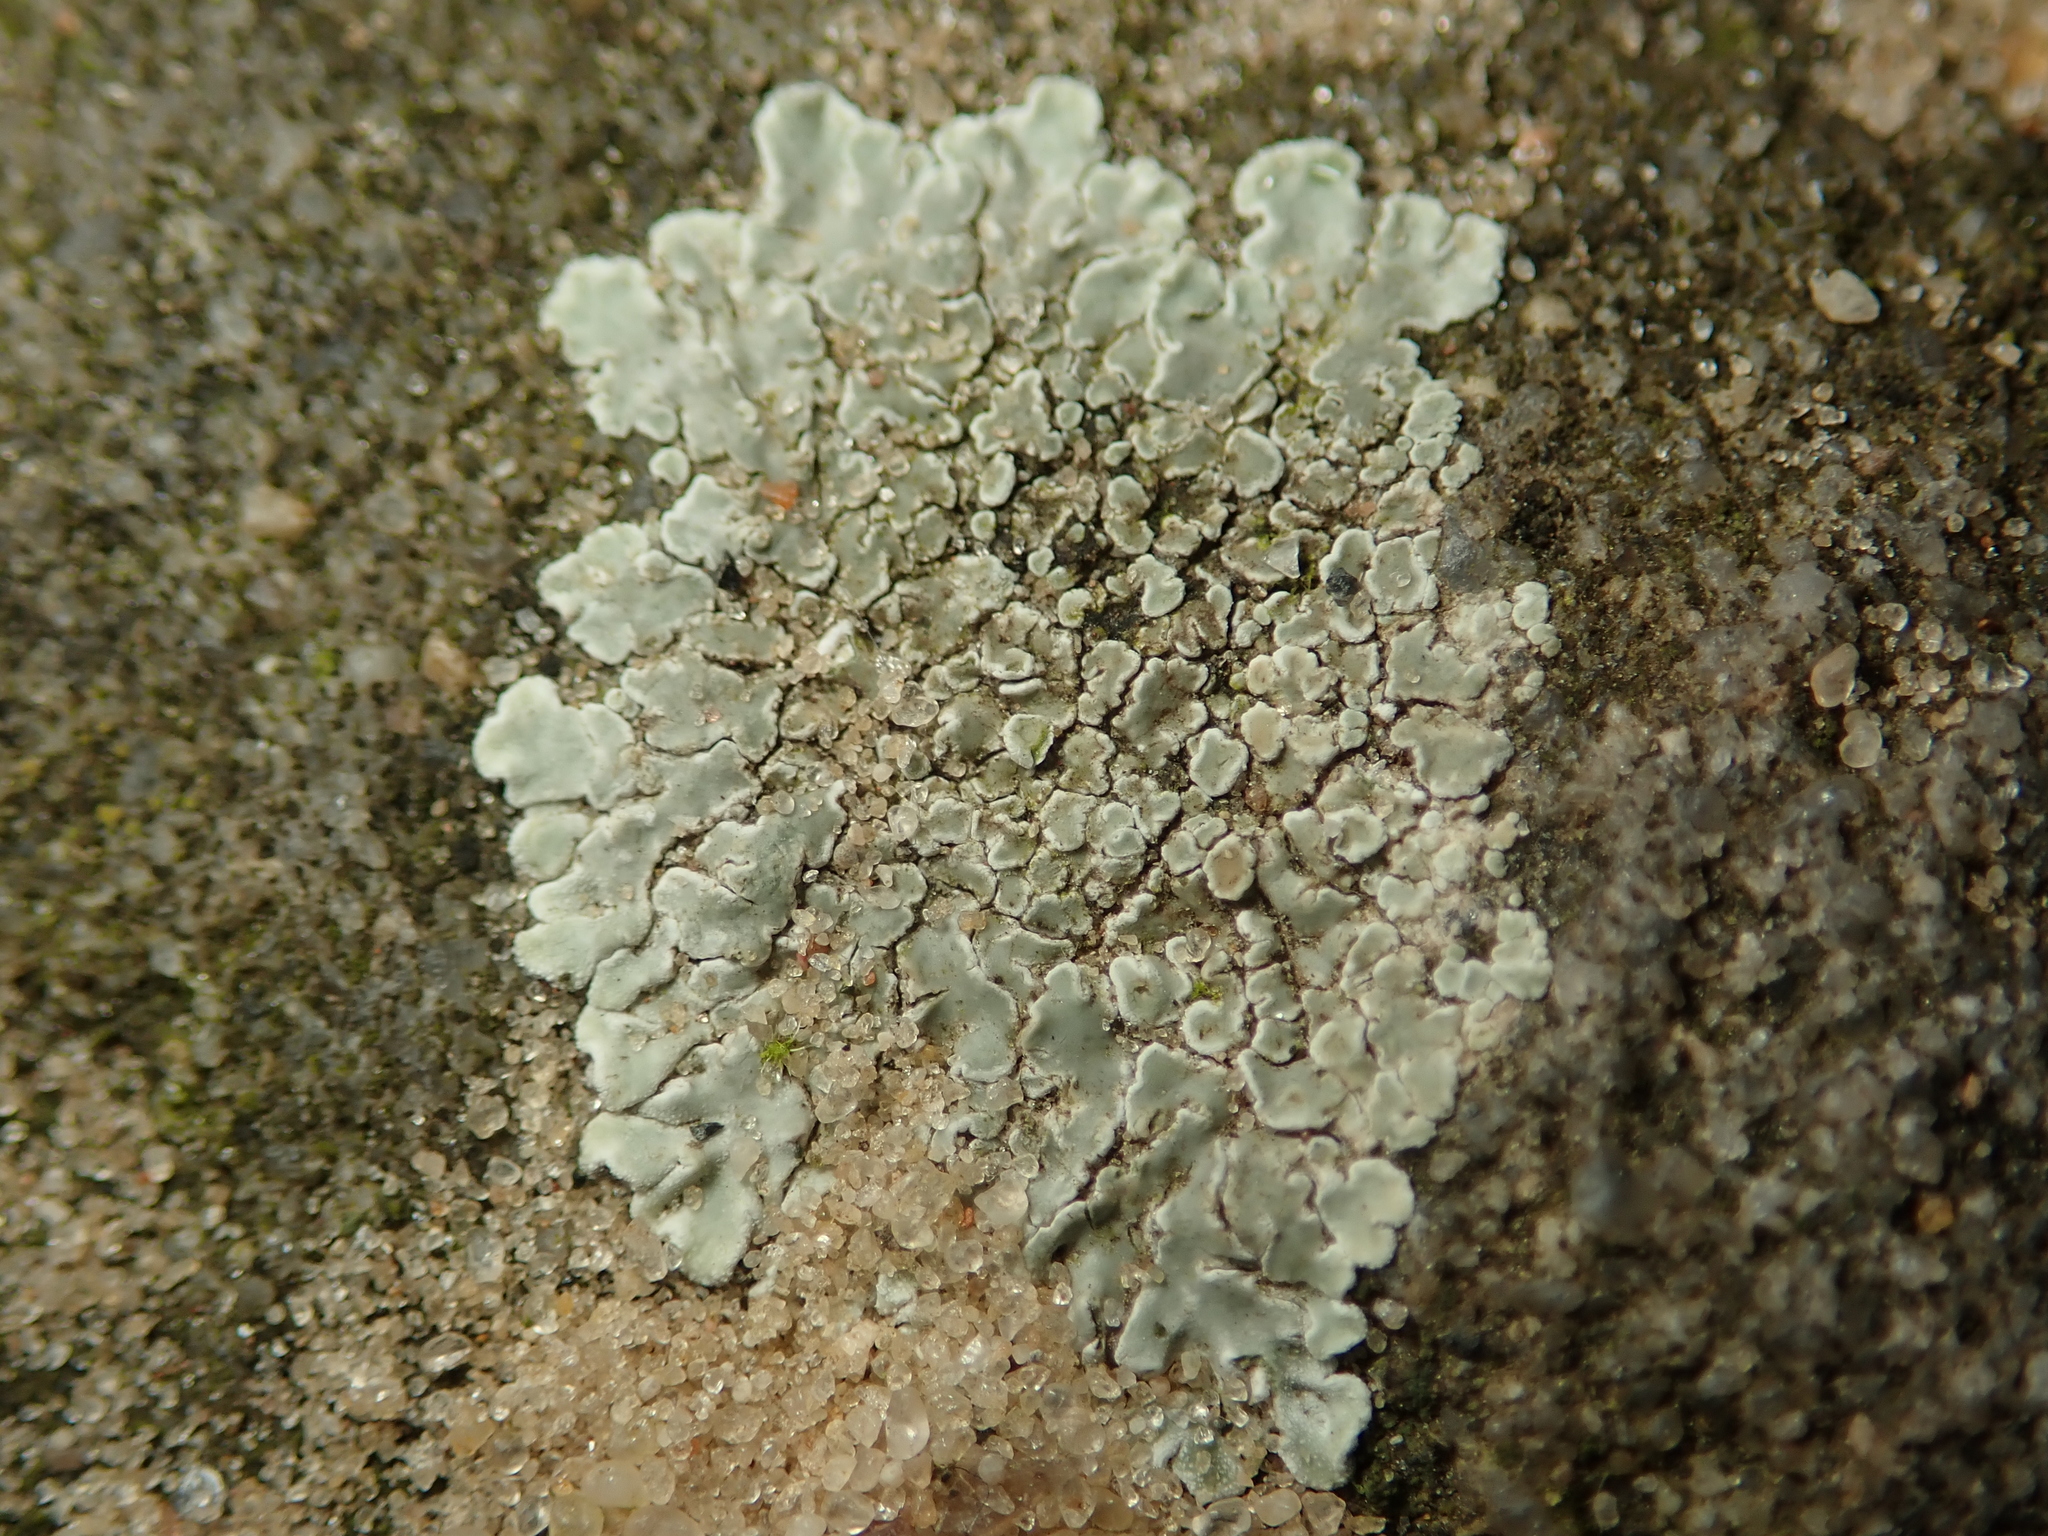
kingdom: Fungi
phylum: Ascomycota
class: Lecanoromycetes
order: Lecanorales
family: Lecanoraceae
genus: Protoparmeliopsis
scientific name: Protoparmeliopsis muralis
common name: Stonewall rim lichen
